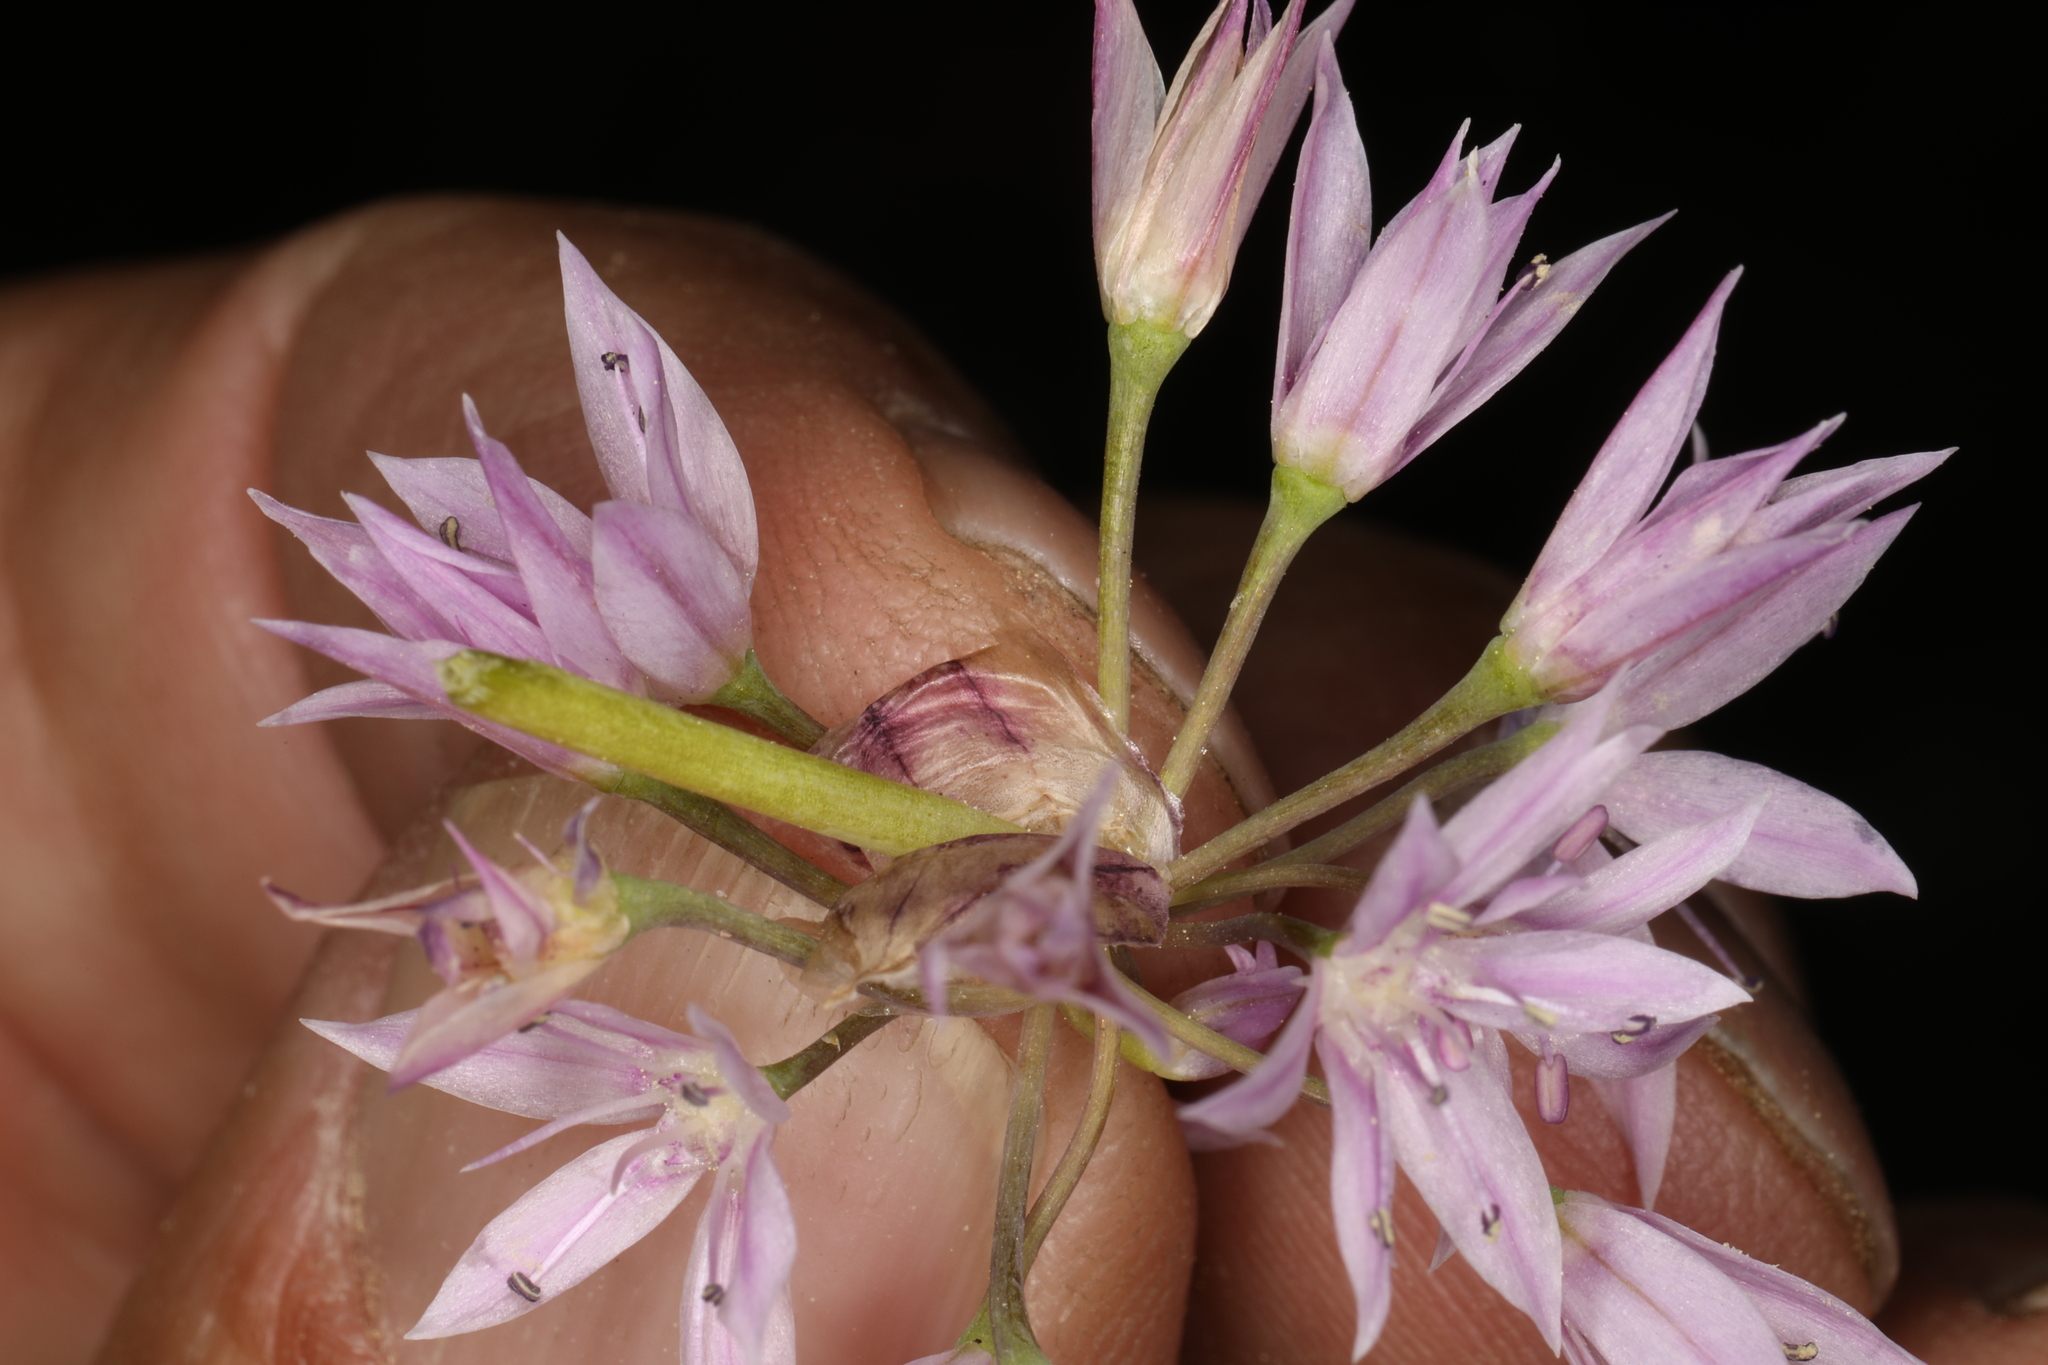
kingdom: Plantae
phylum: Tracheophyta
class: Liliopsida
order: Asparagales
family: Amaryllidaceae
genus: Allium
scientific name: Allium bisceptrum
